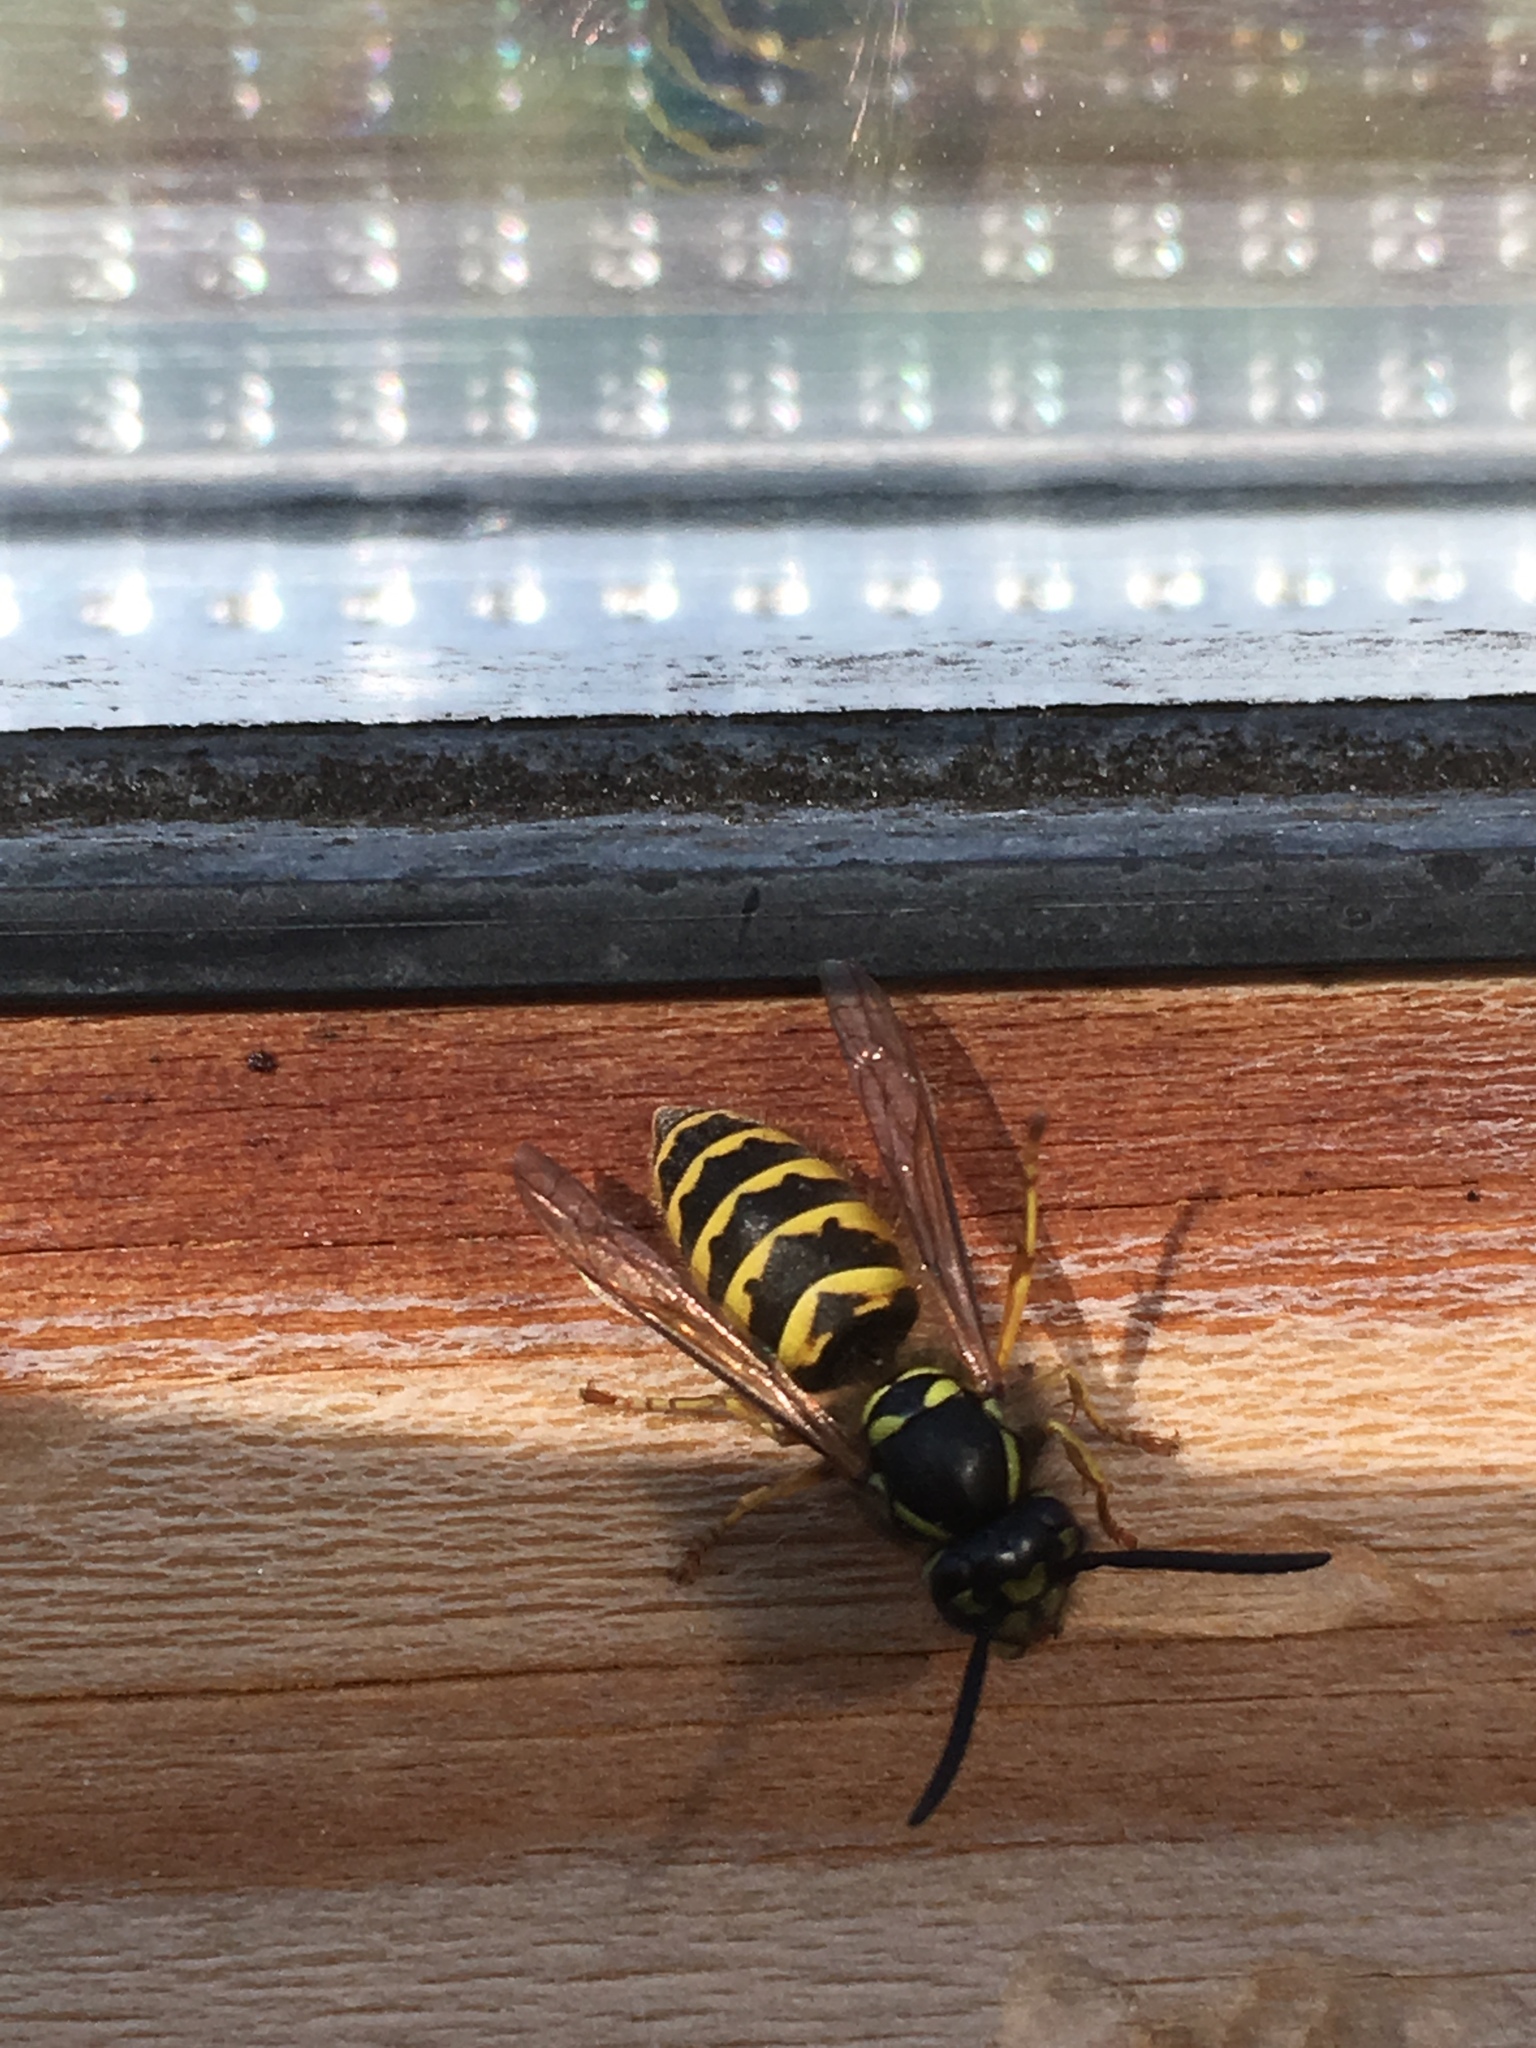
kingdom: Animalia
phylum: Arthropoda
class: Insecta
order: Hymenoptera
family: Vespidae
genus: Vespula
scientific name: Vespula vulgaris
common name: Common wasp
